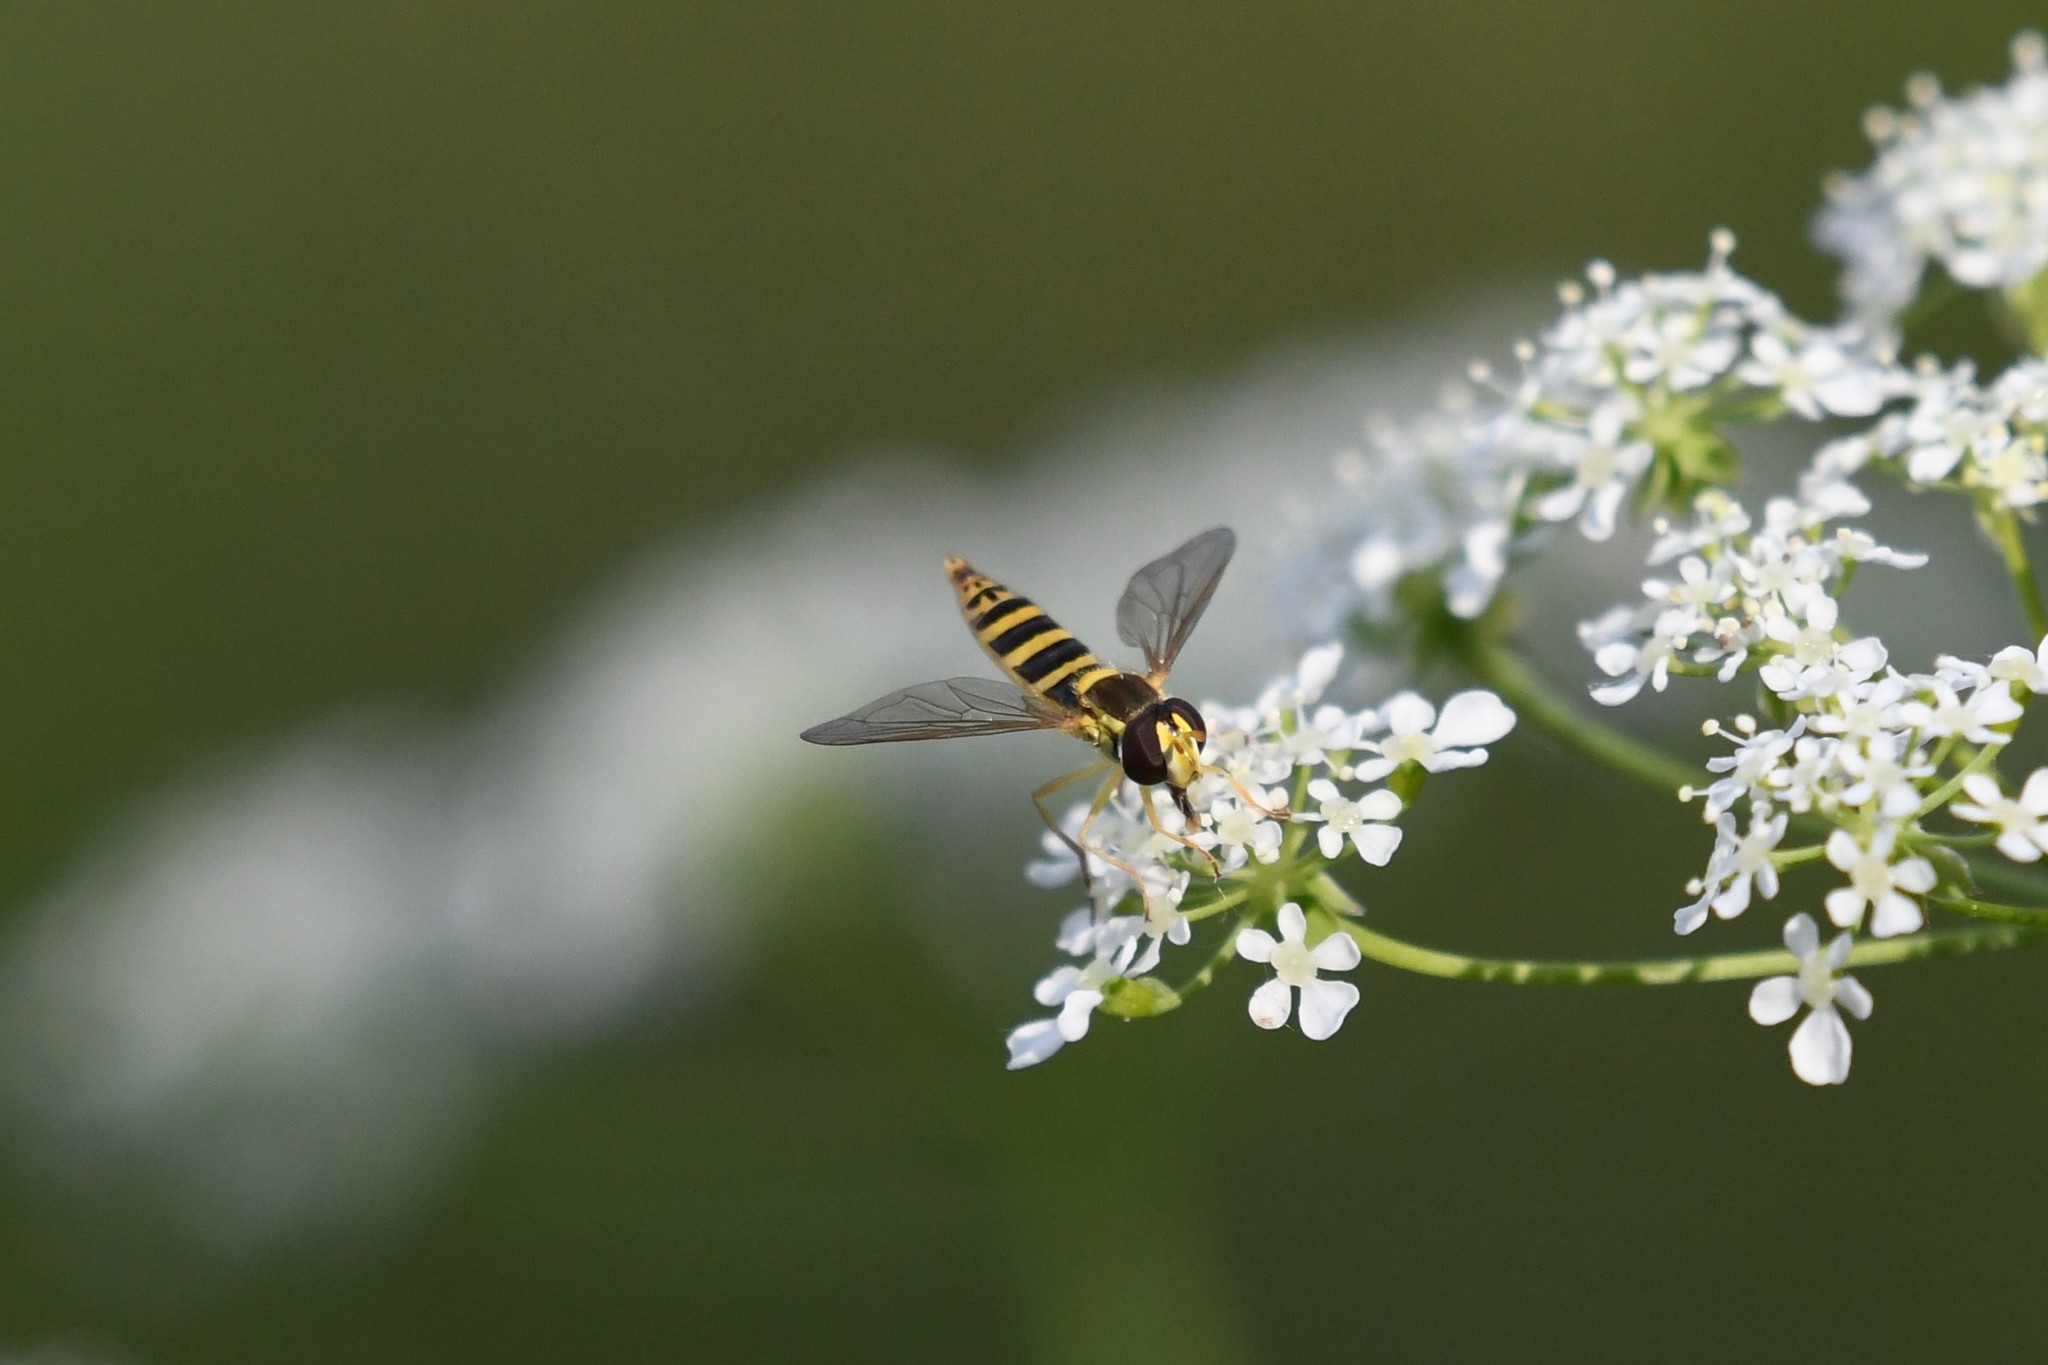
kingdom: Animalia
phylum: Arthropoda
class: Insecta
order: Diptera
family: Syrphidae
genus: Sphaerophoria
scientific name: Sphaerophoria
